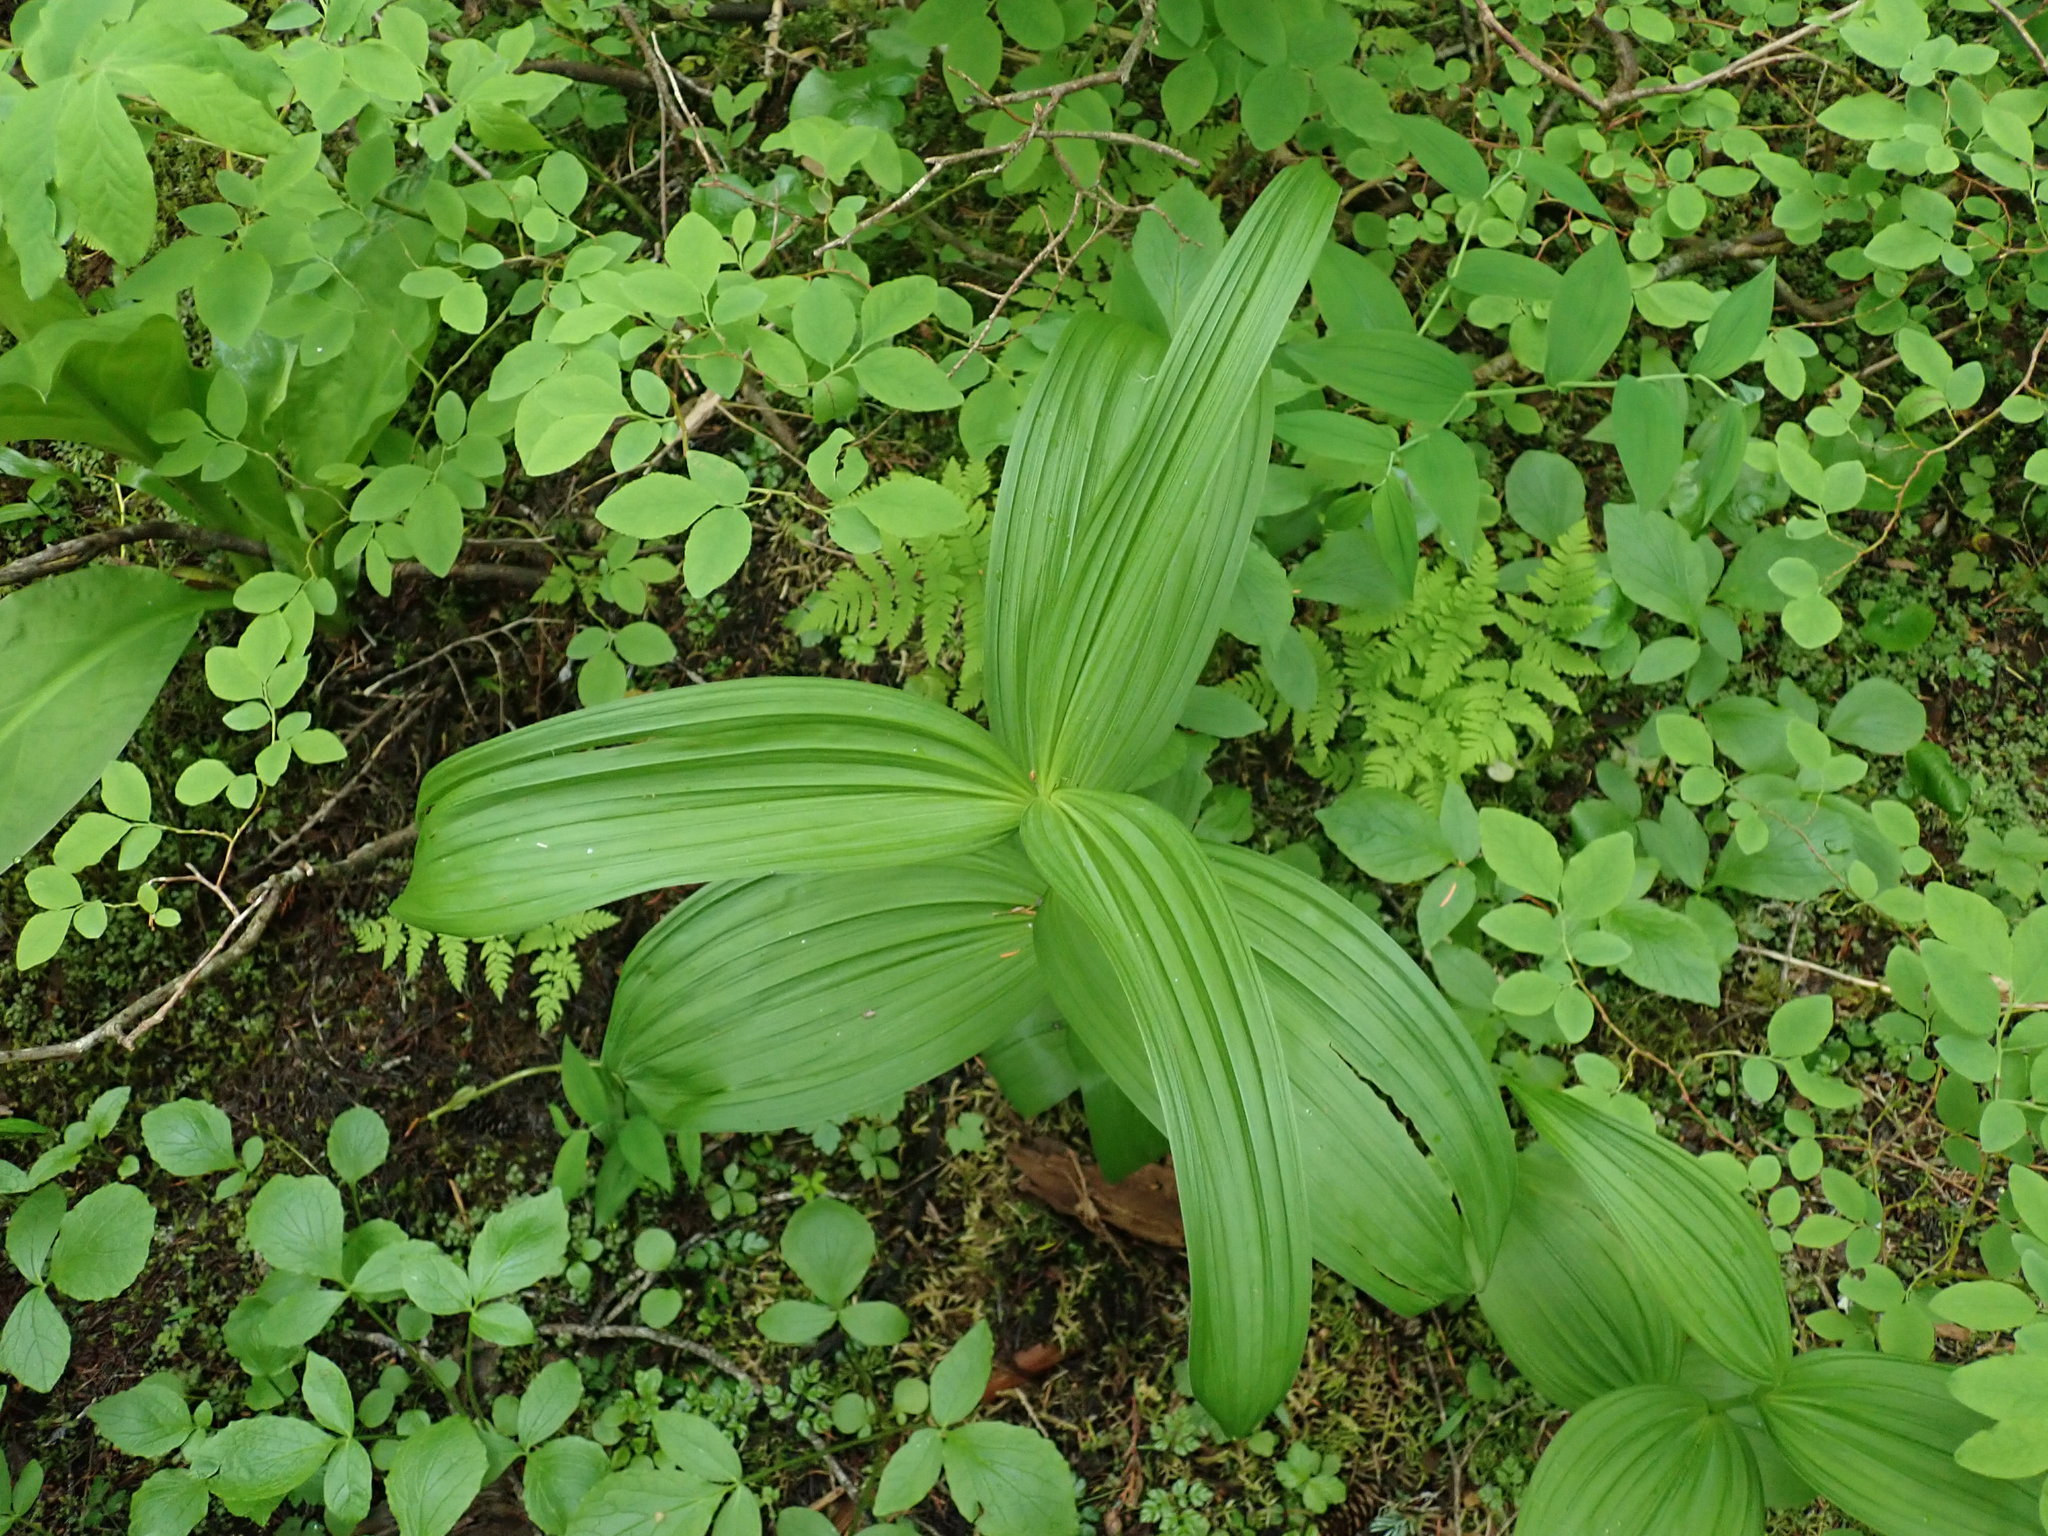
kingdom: Plantae
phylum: Tracheophyta
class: Liliopsida
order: Liliales
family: Melanthiaceae
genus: Veratrum
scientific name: Veratrum viride
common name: American false hellebore
